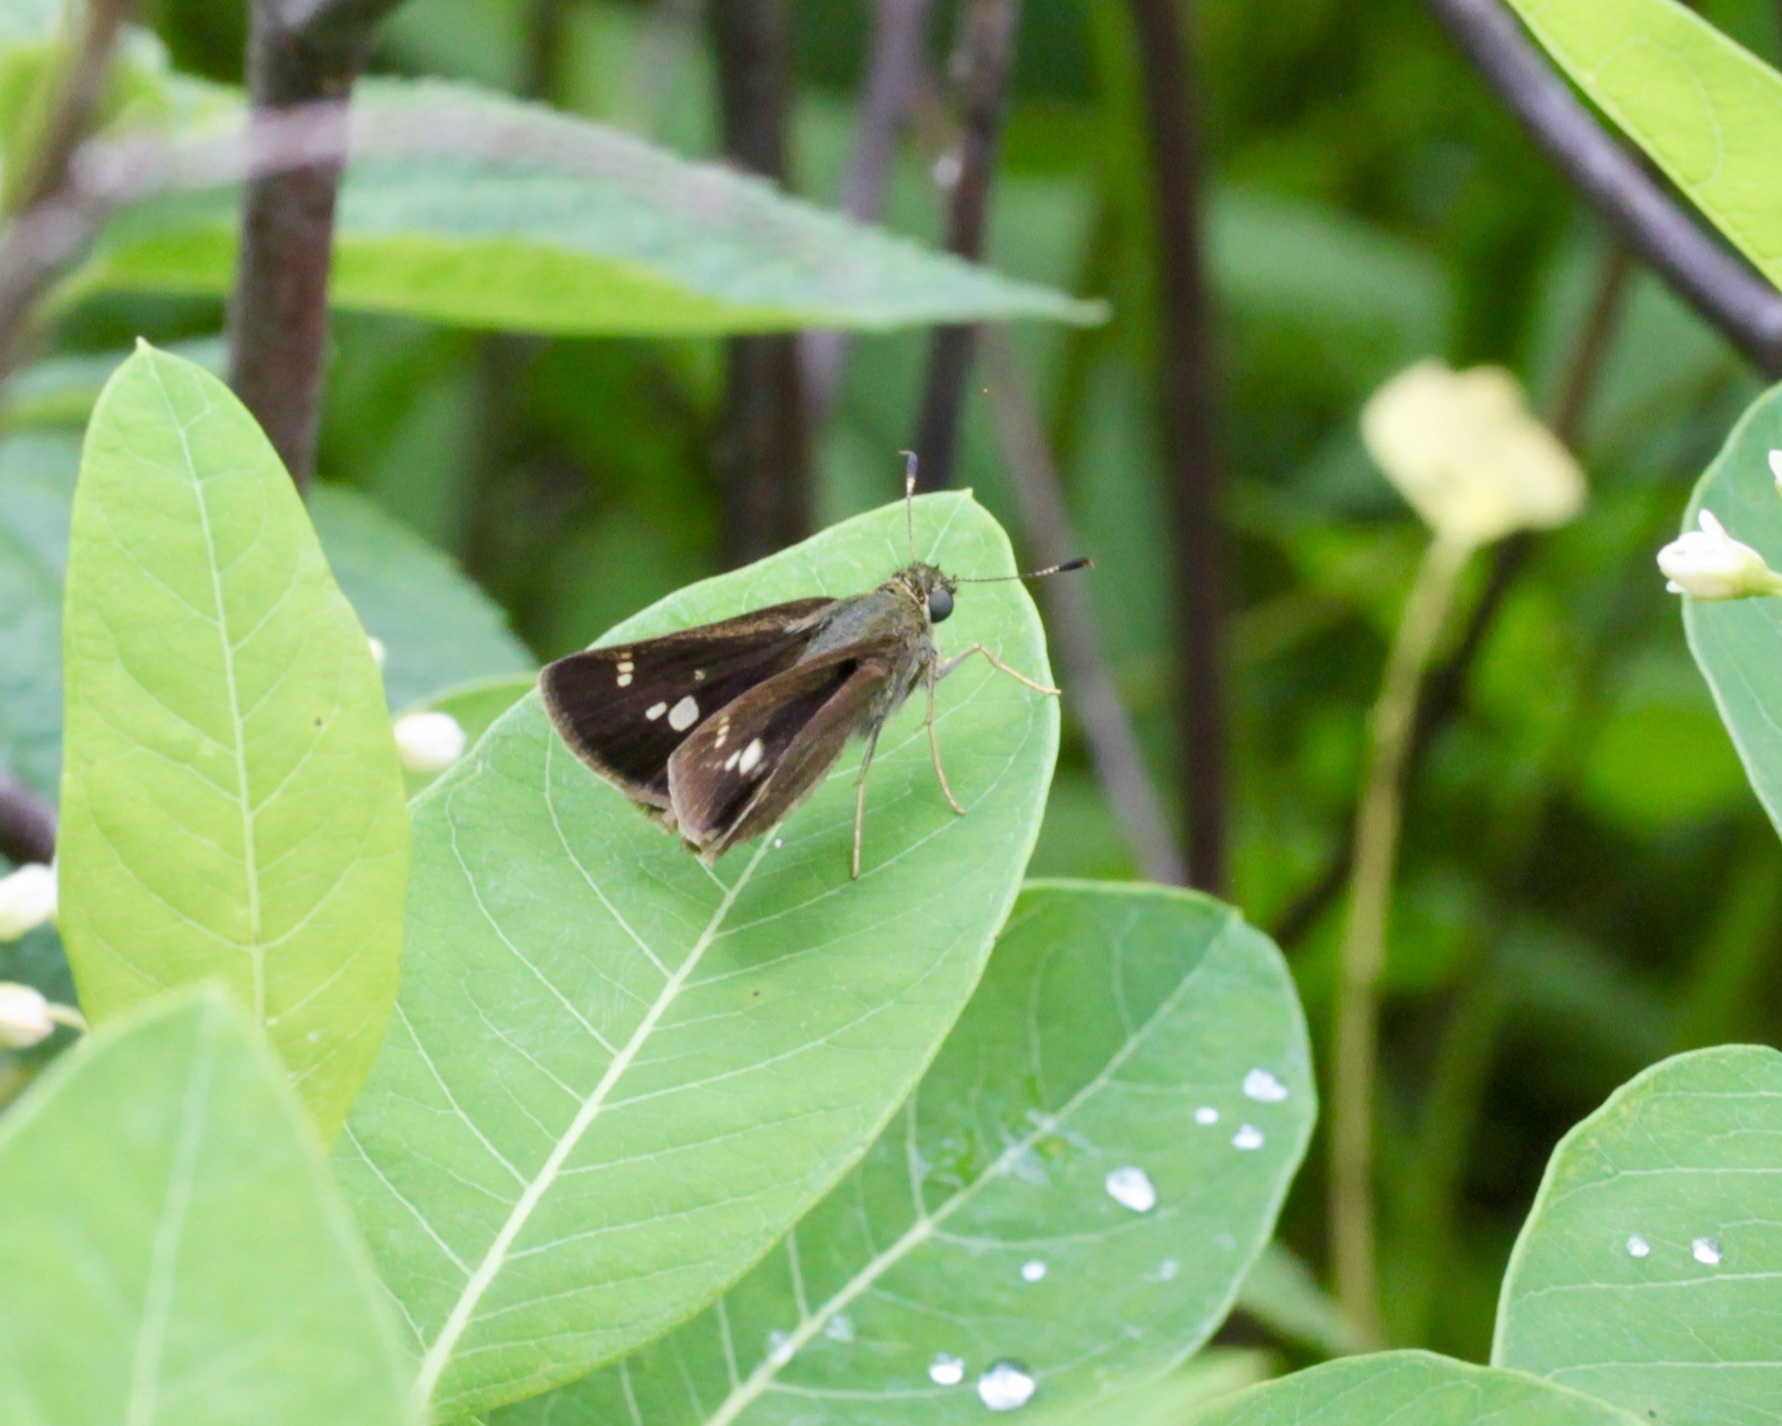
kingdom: Animalia
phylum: Arthropoda
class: Insecta
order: Lepidoptera
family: Hesperiidae
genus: Vernia
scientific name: Vernia verna
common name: Little glassywing
